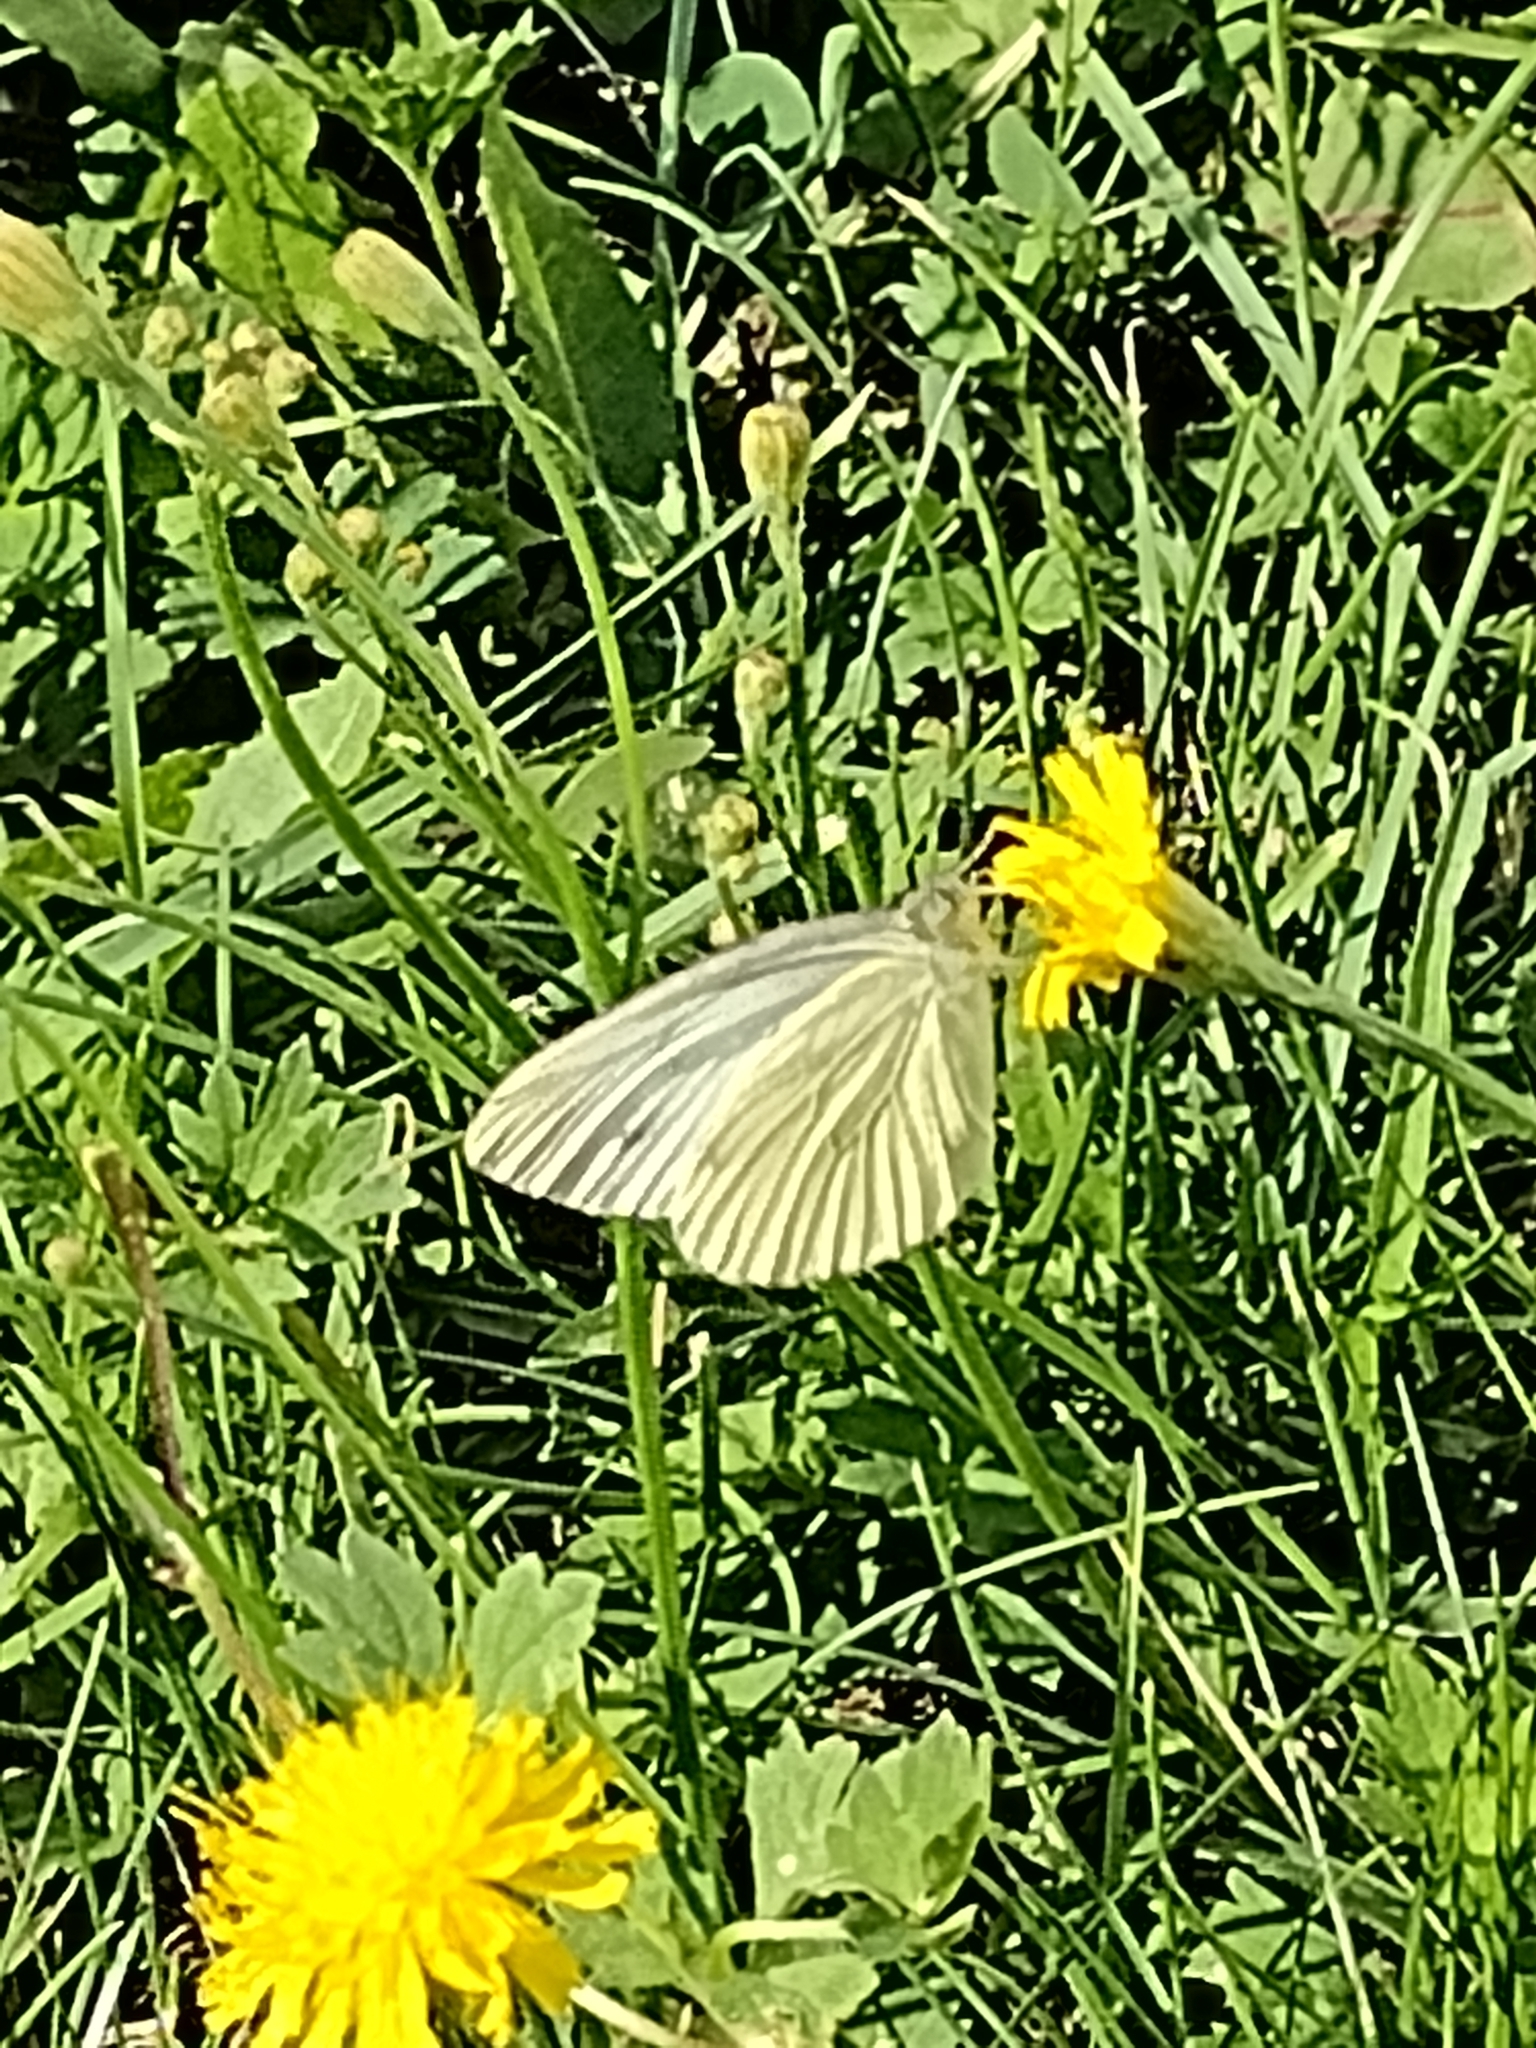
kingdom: Animalia
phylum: Arthropoda
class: Insecta
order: Lepidoptera
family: Pieridae
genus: Pieris
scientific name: Pieris napi
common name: Green-veined white
